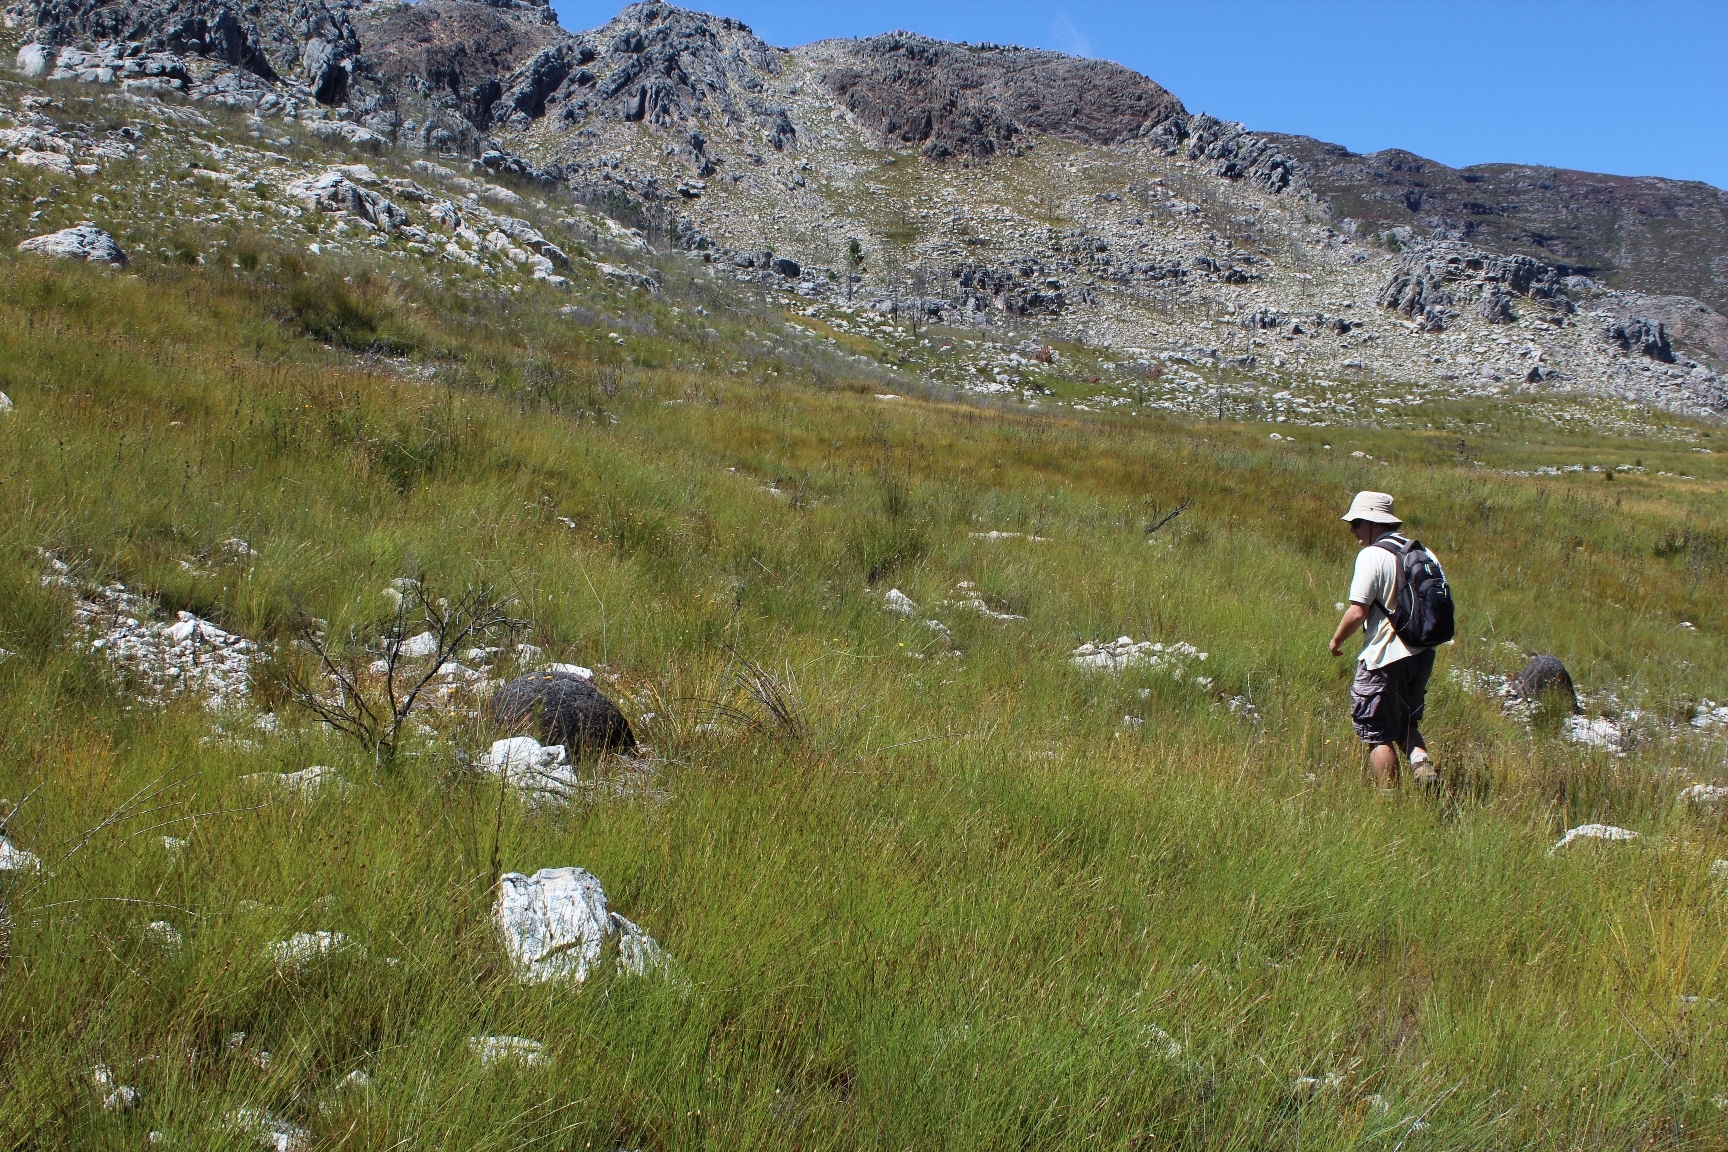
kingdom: Plantae
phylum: Tracheophyta
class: Liliopsida
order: Poales
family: Cyperaceae
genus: Schoenus
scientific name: Schoenus cuspidatus
